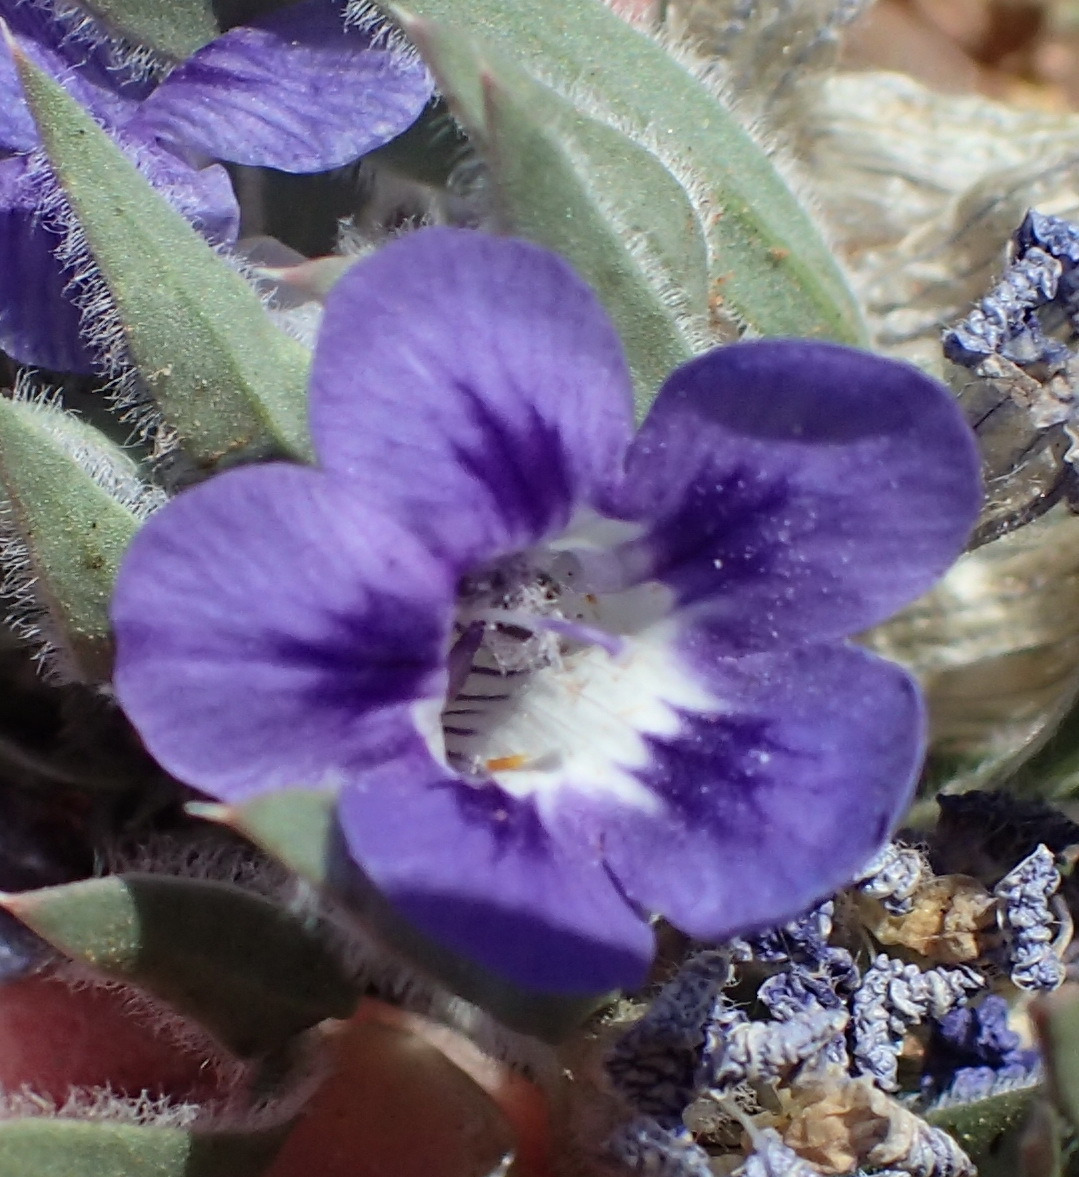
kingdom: Plantae
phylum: Tracheophyta
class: Magnoliopsida
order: Lamiales
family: Scrophulariaceae
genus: Aptosimum
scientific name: Aptosimum indivisum
